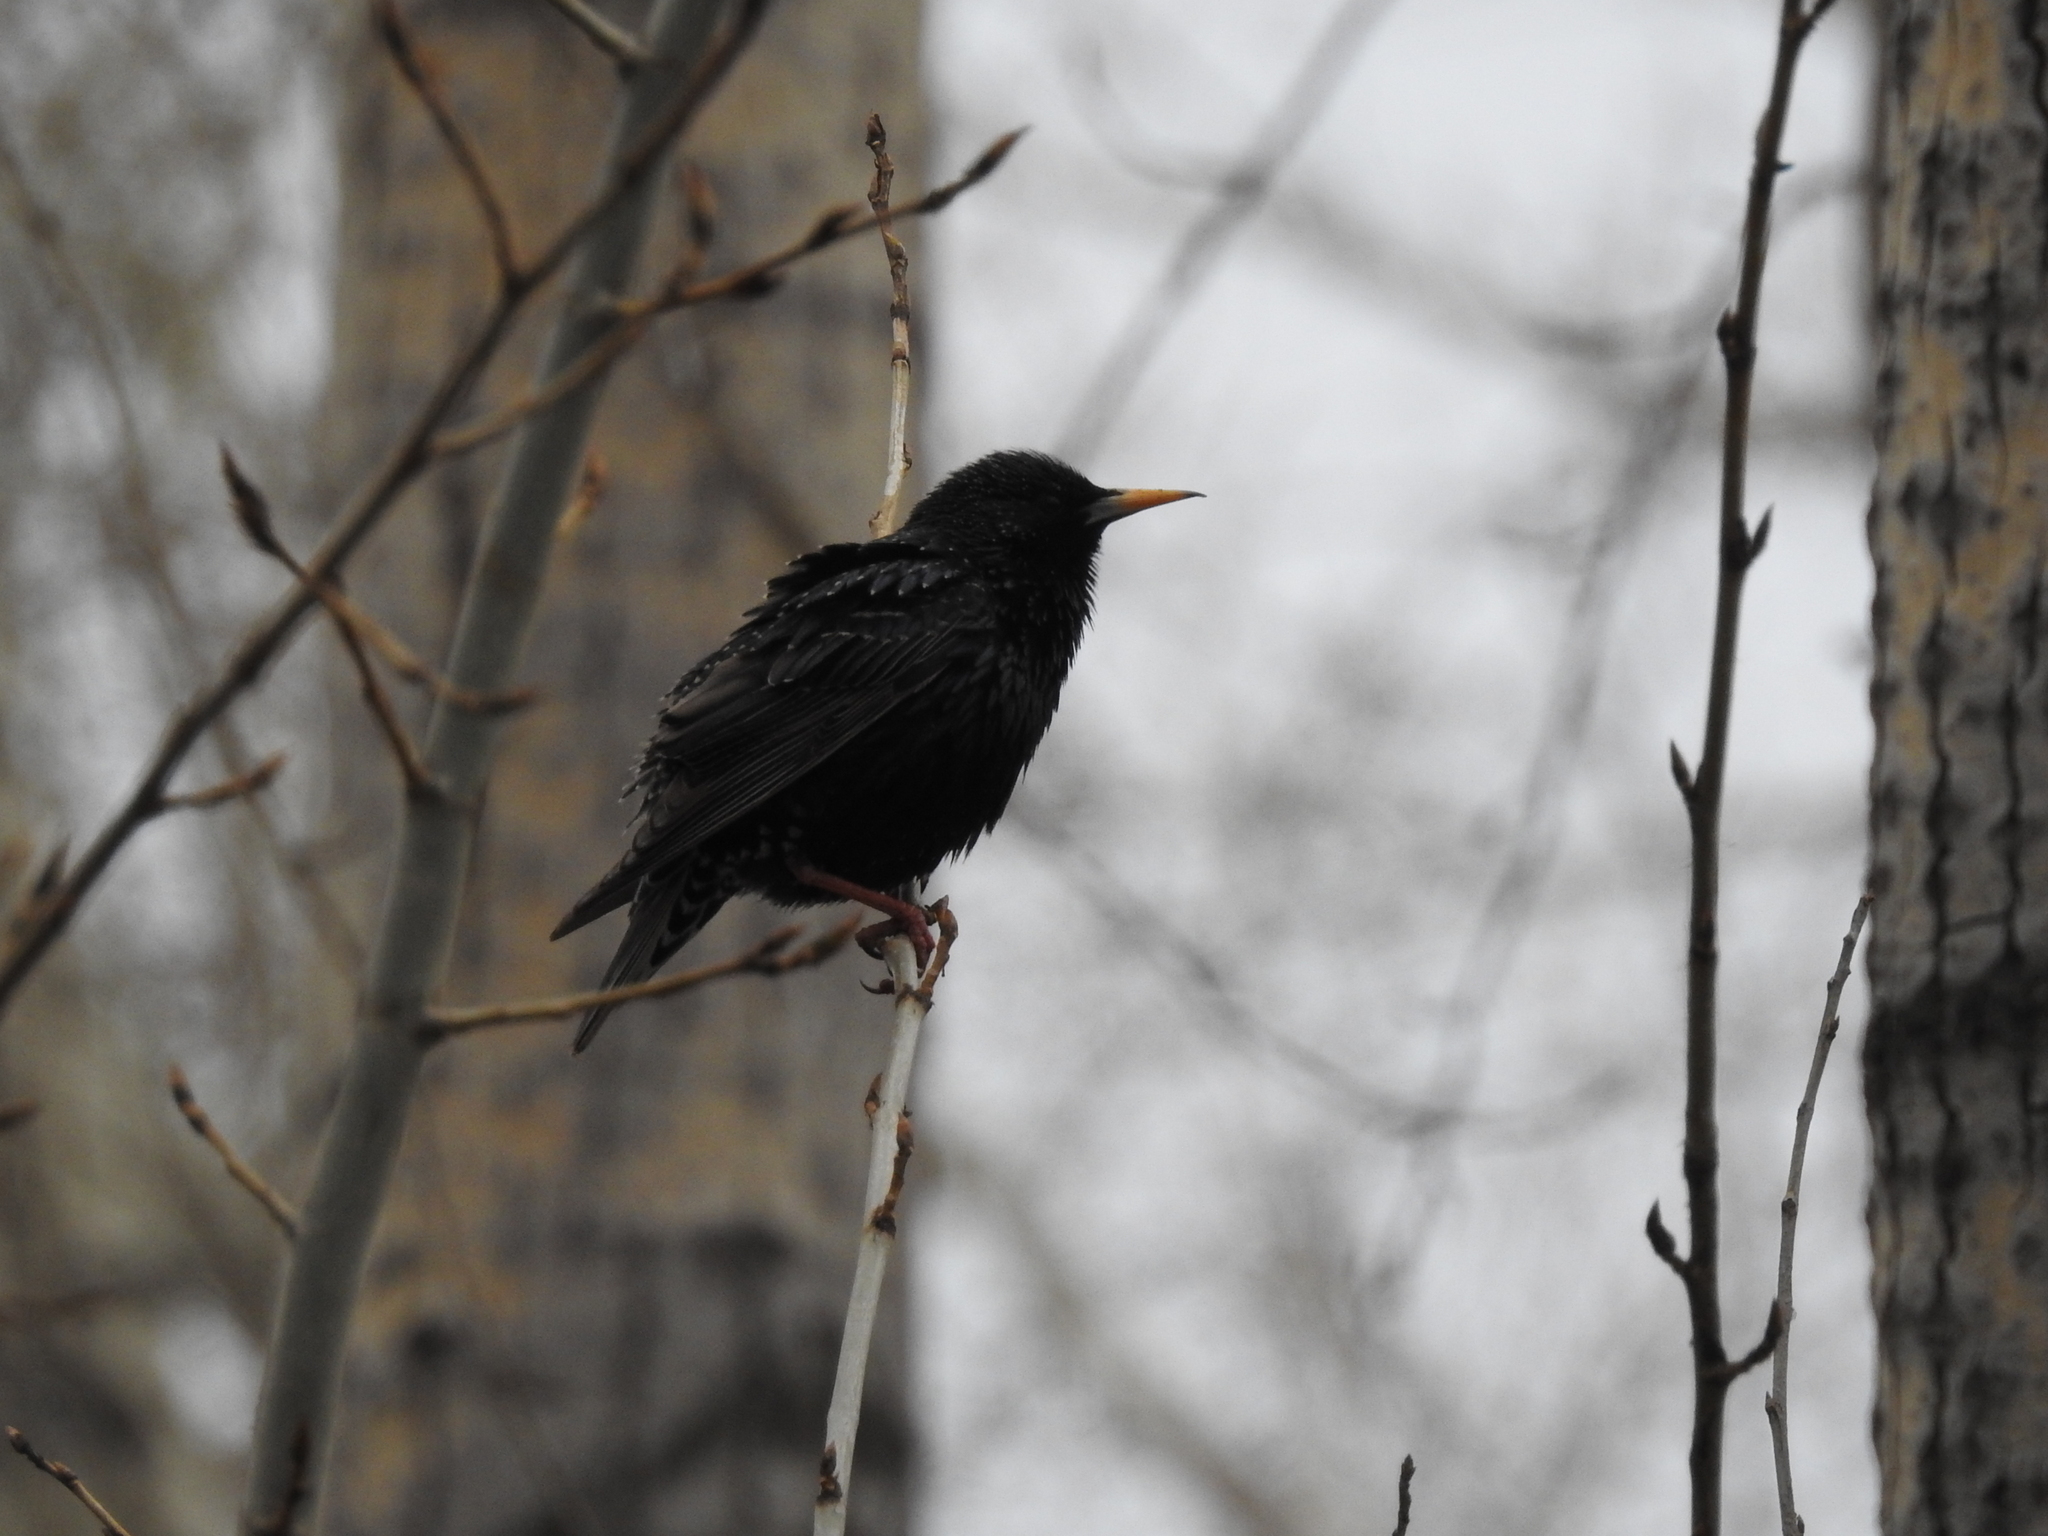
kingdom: Animalia
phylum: Chordata
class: Aves
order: Passeriformes
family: Sturnidae
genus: Sturnus
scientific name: Sturnus vulgaris
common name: Common starling
